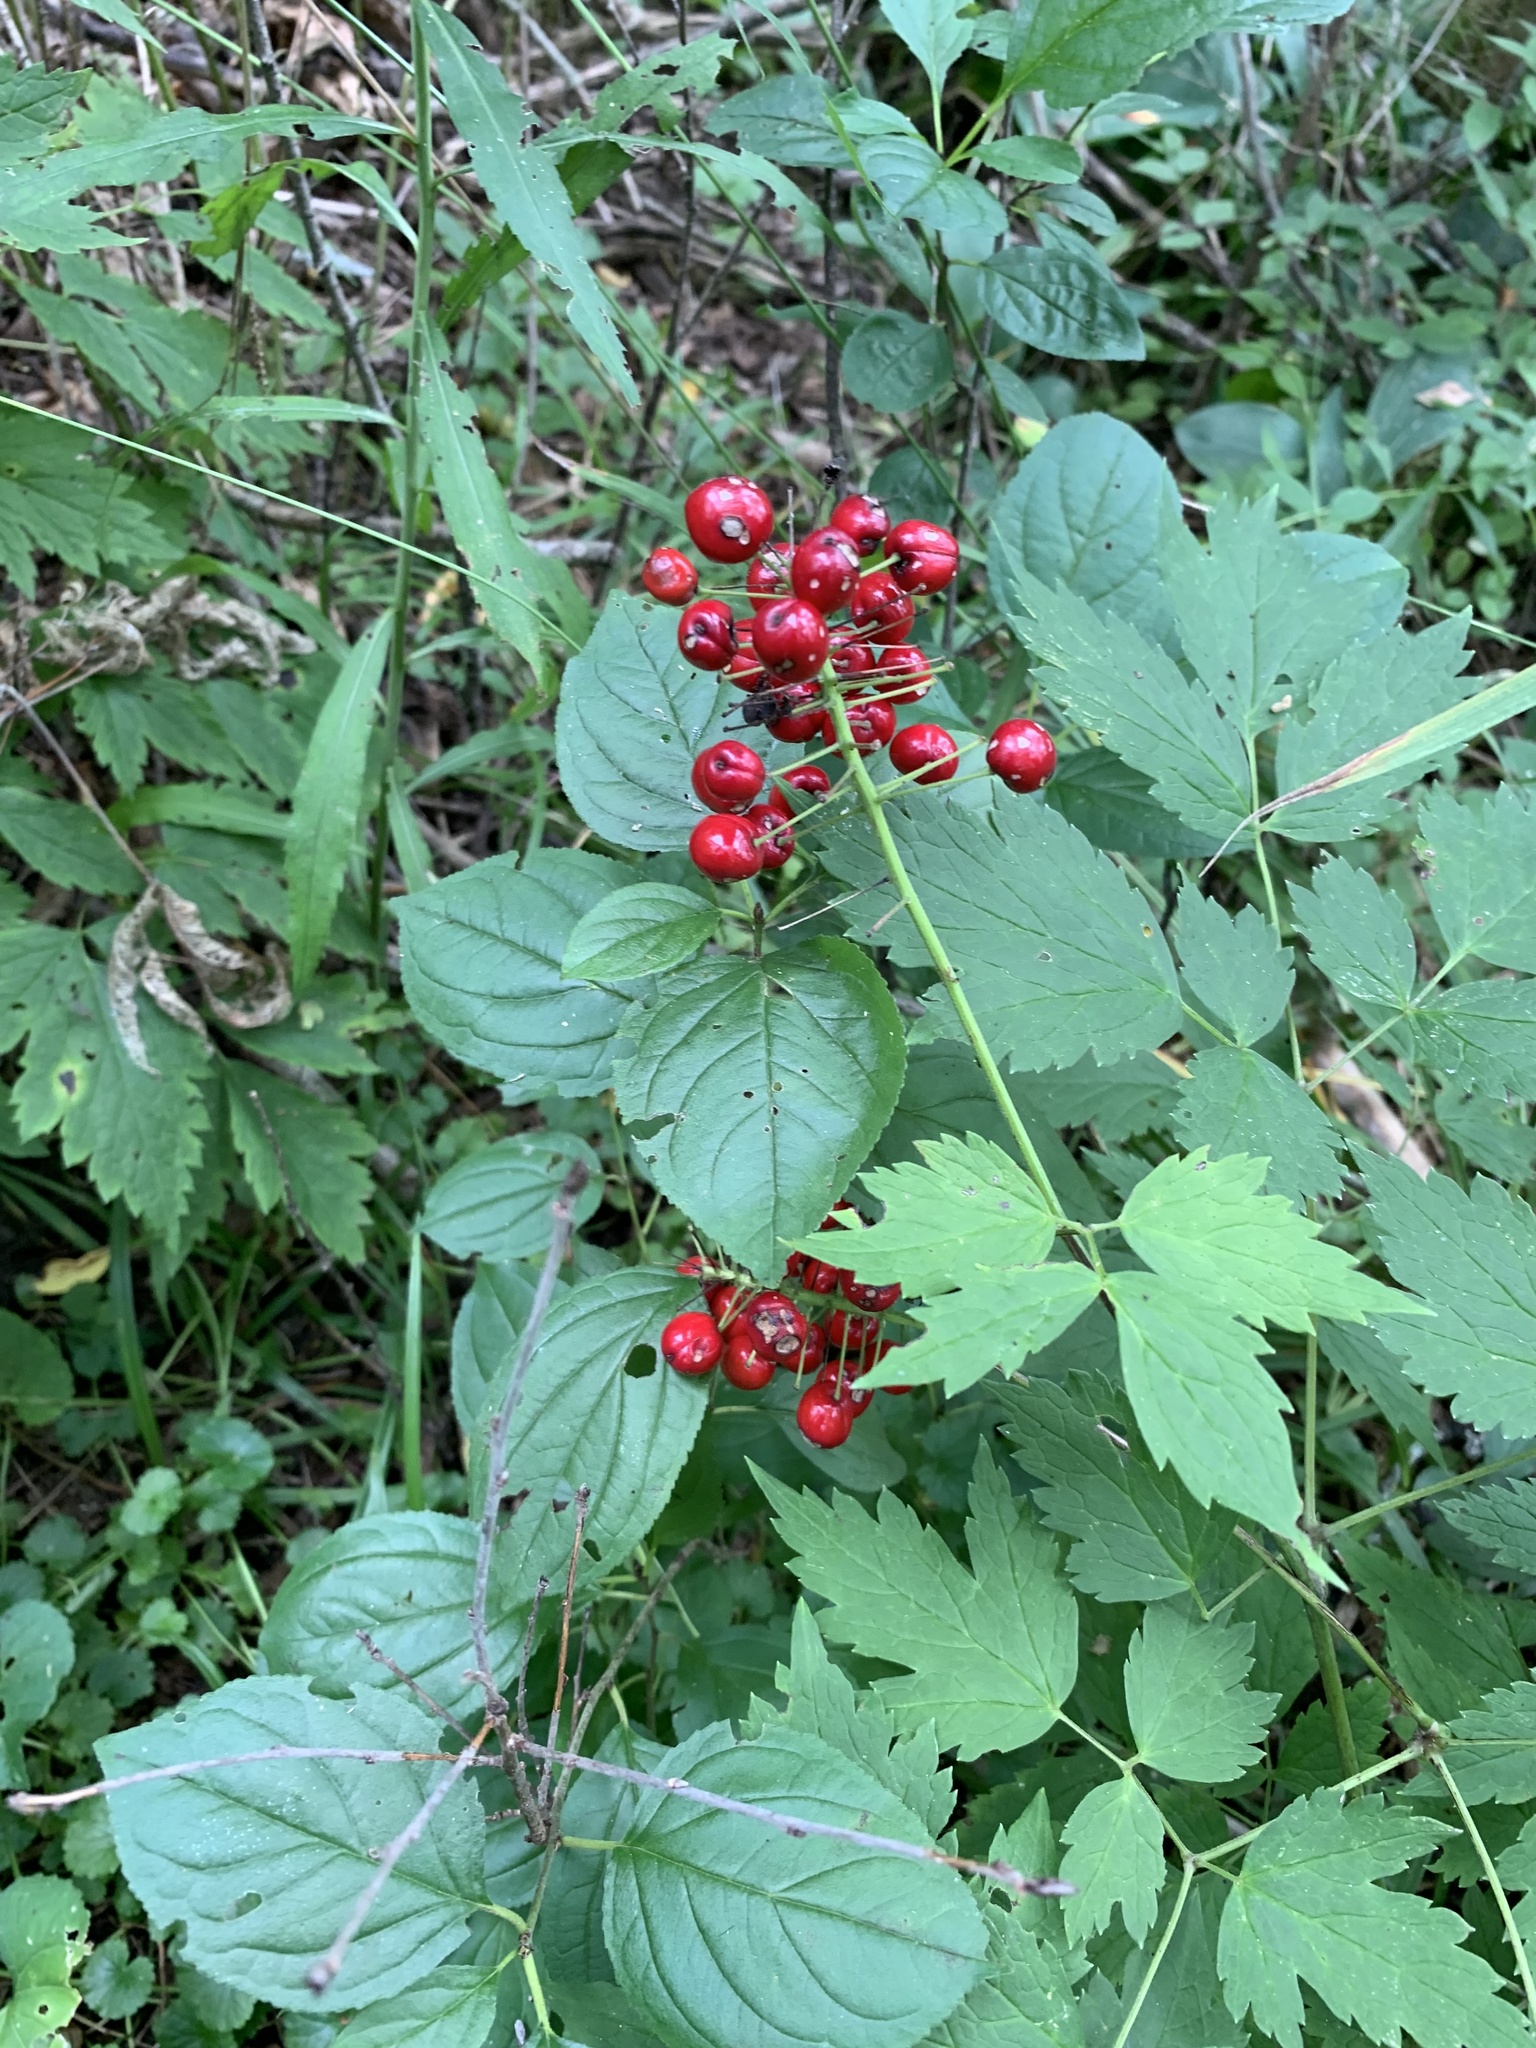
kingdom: Plantae
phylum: Tracheophyta
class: Magnoliopsida
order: Ranunculales
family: Ranunculaceae
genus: Actaea
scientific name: Actaea rubra
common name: Red baneberry
